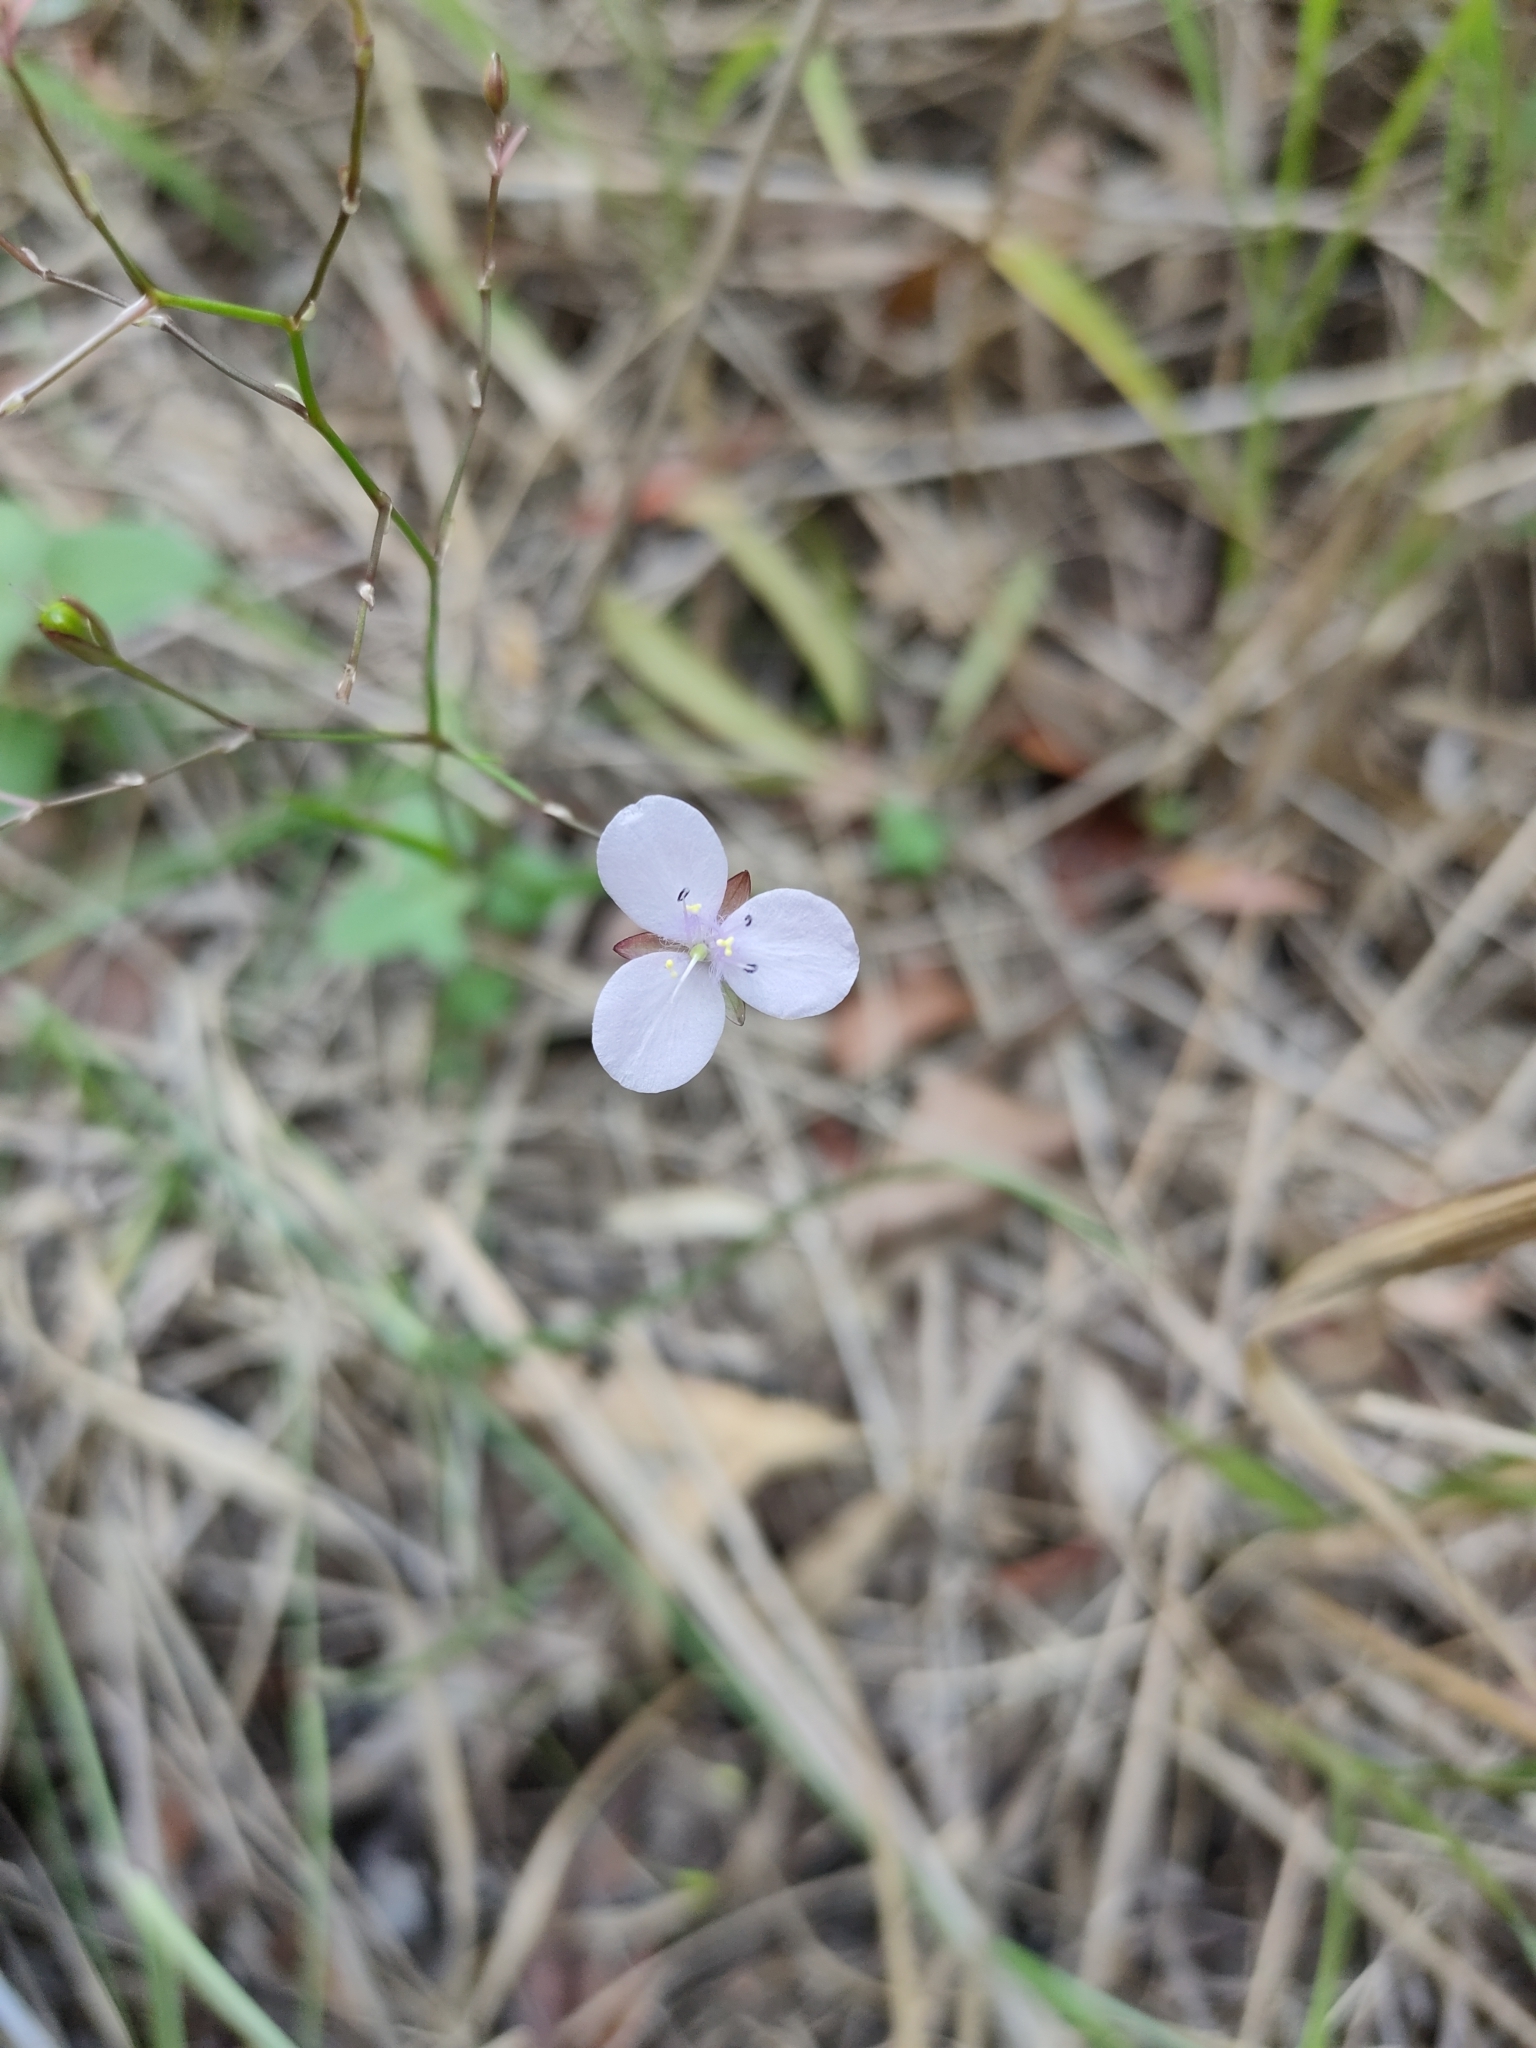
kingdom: Plantae
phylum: Tracheophyta
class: Liliopsida
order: Commelinales
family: Commelinaceae
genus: Murdannia
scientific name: Murdannia graminea
